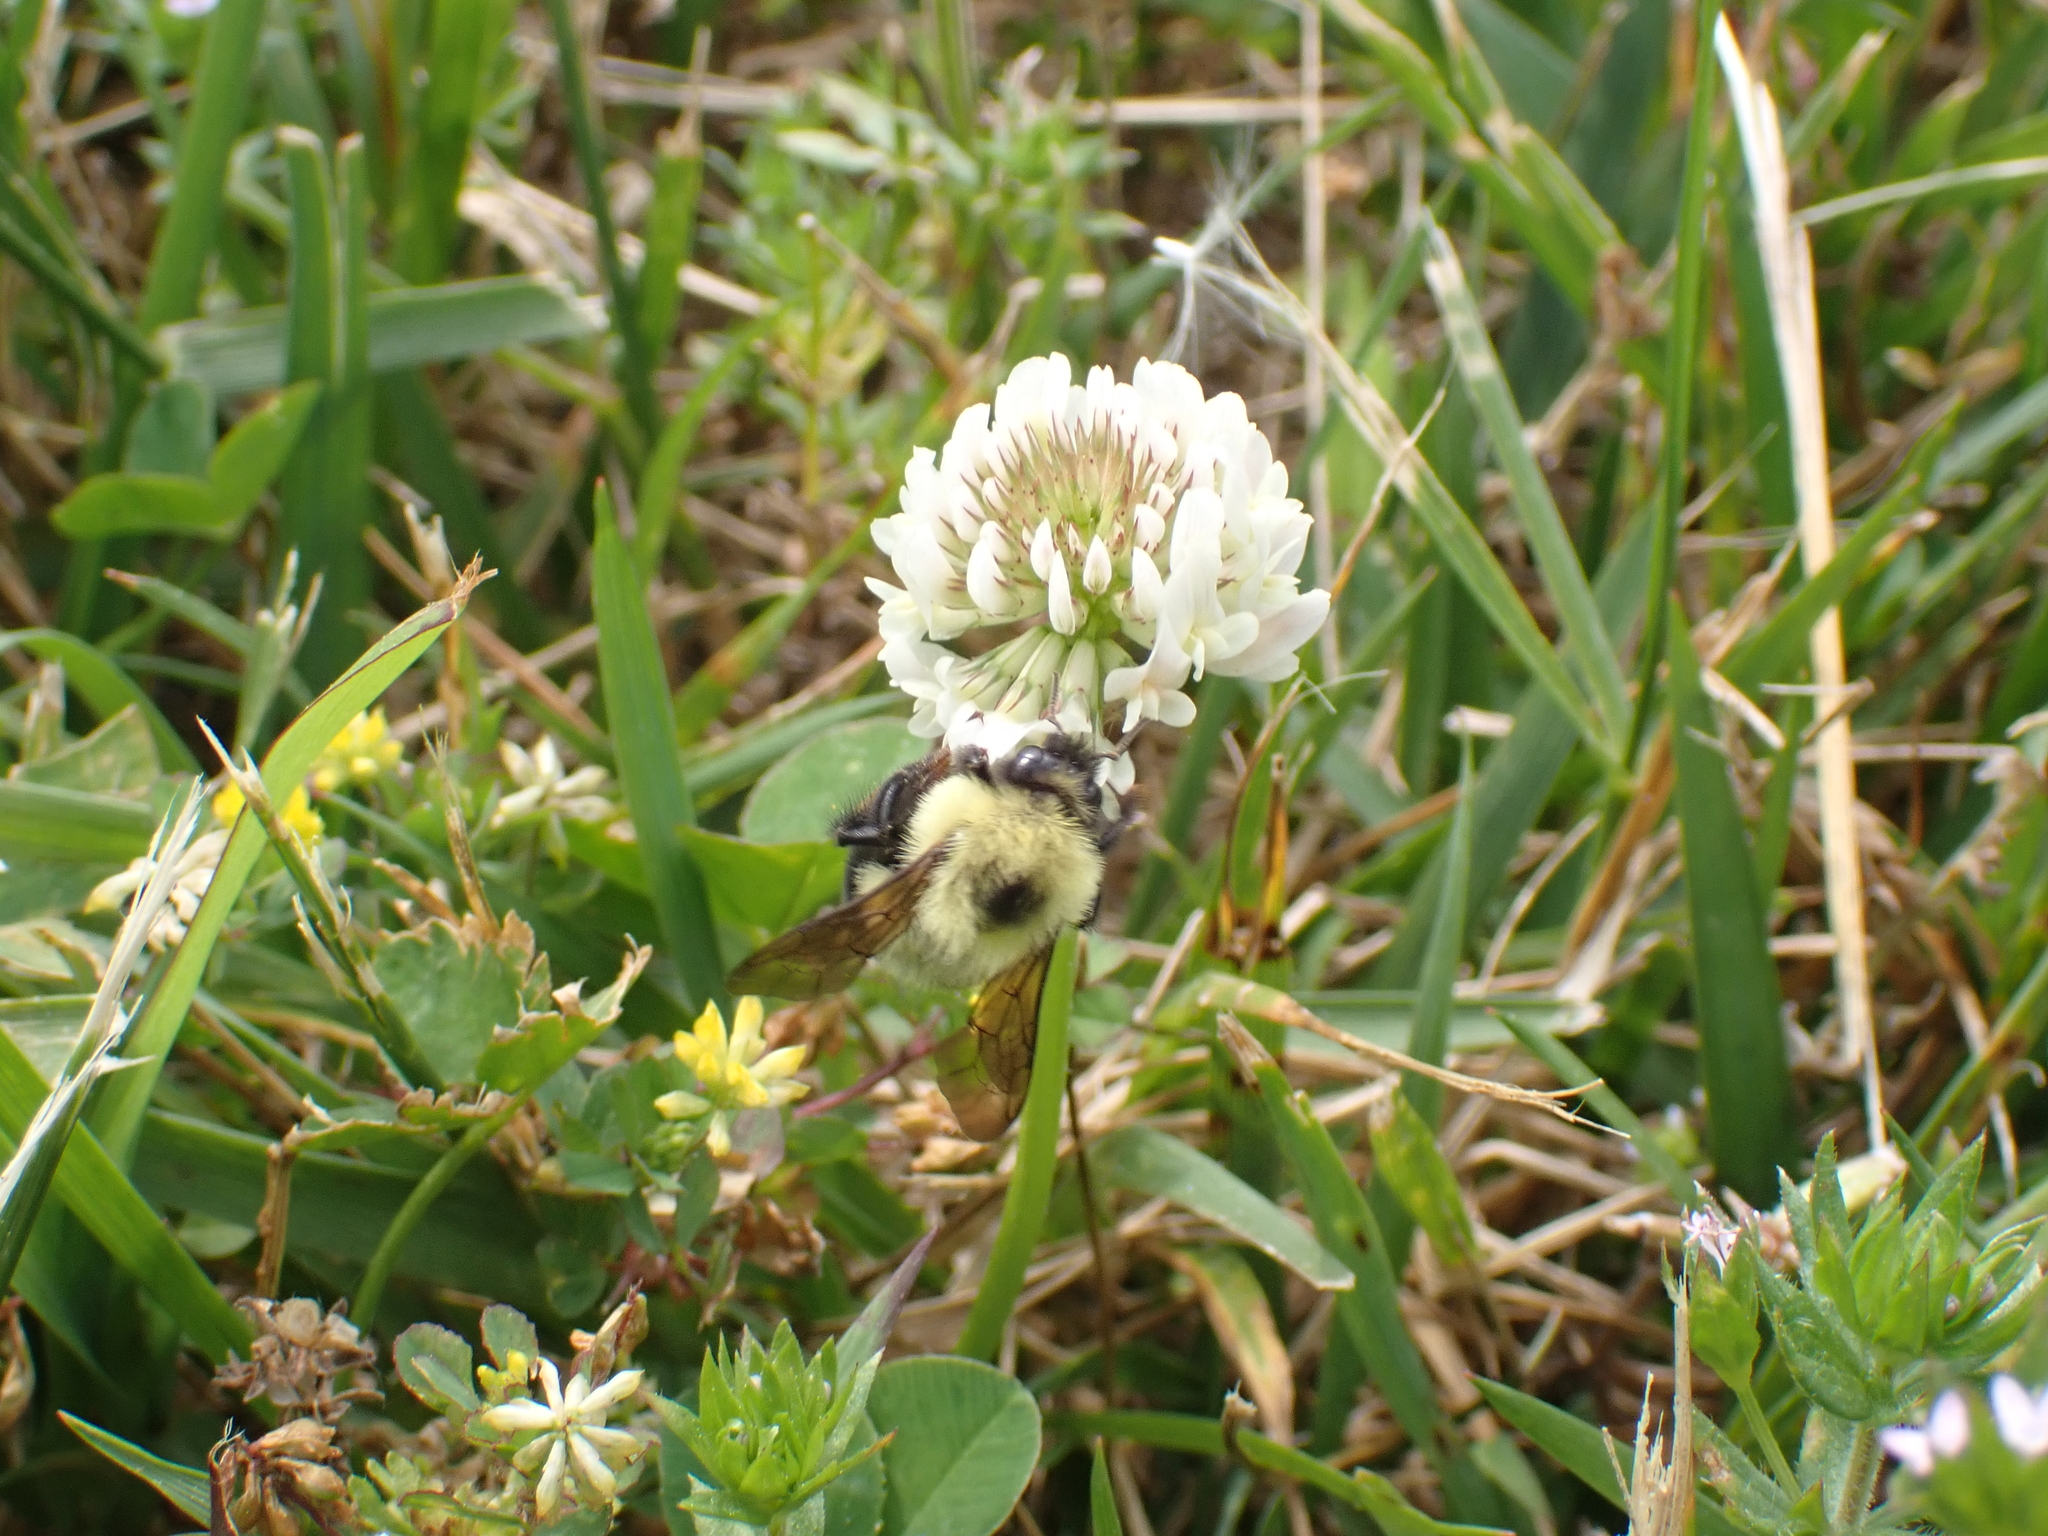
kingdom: Animalia
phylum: Arthropoda
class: Insecta
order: Hymenoptera
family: Apidae
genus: Bombus
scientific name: Bombus bimaculatus
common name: Two-spotted bumble bee
